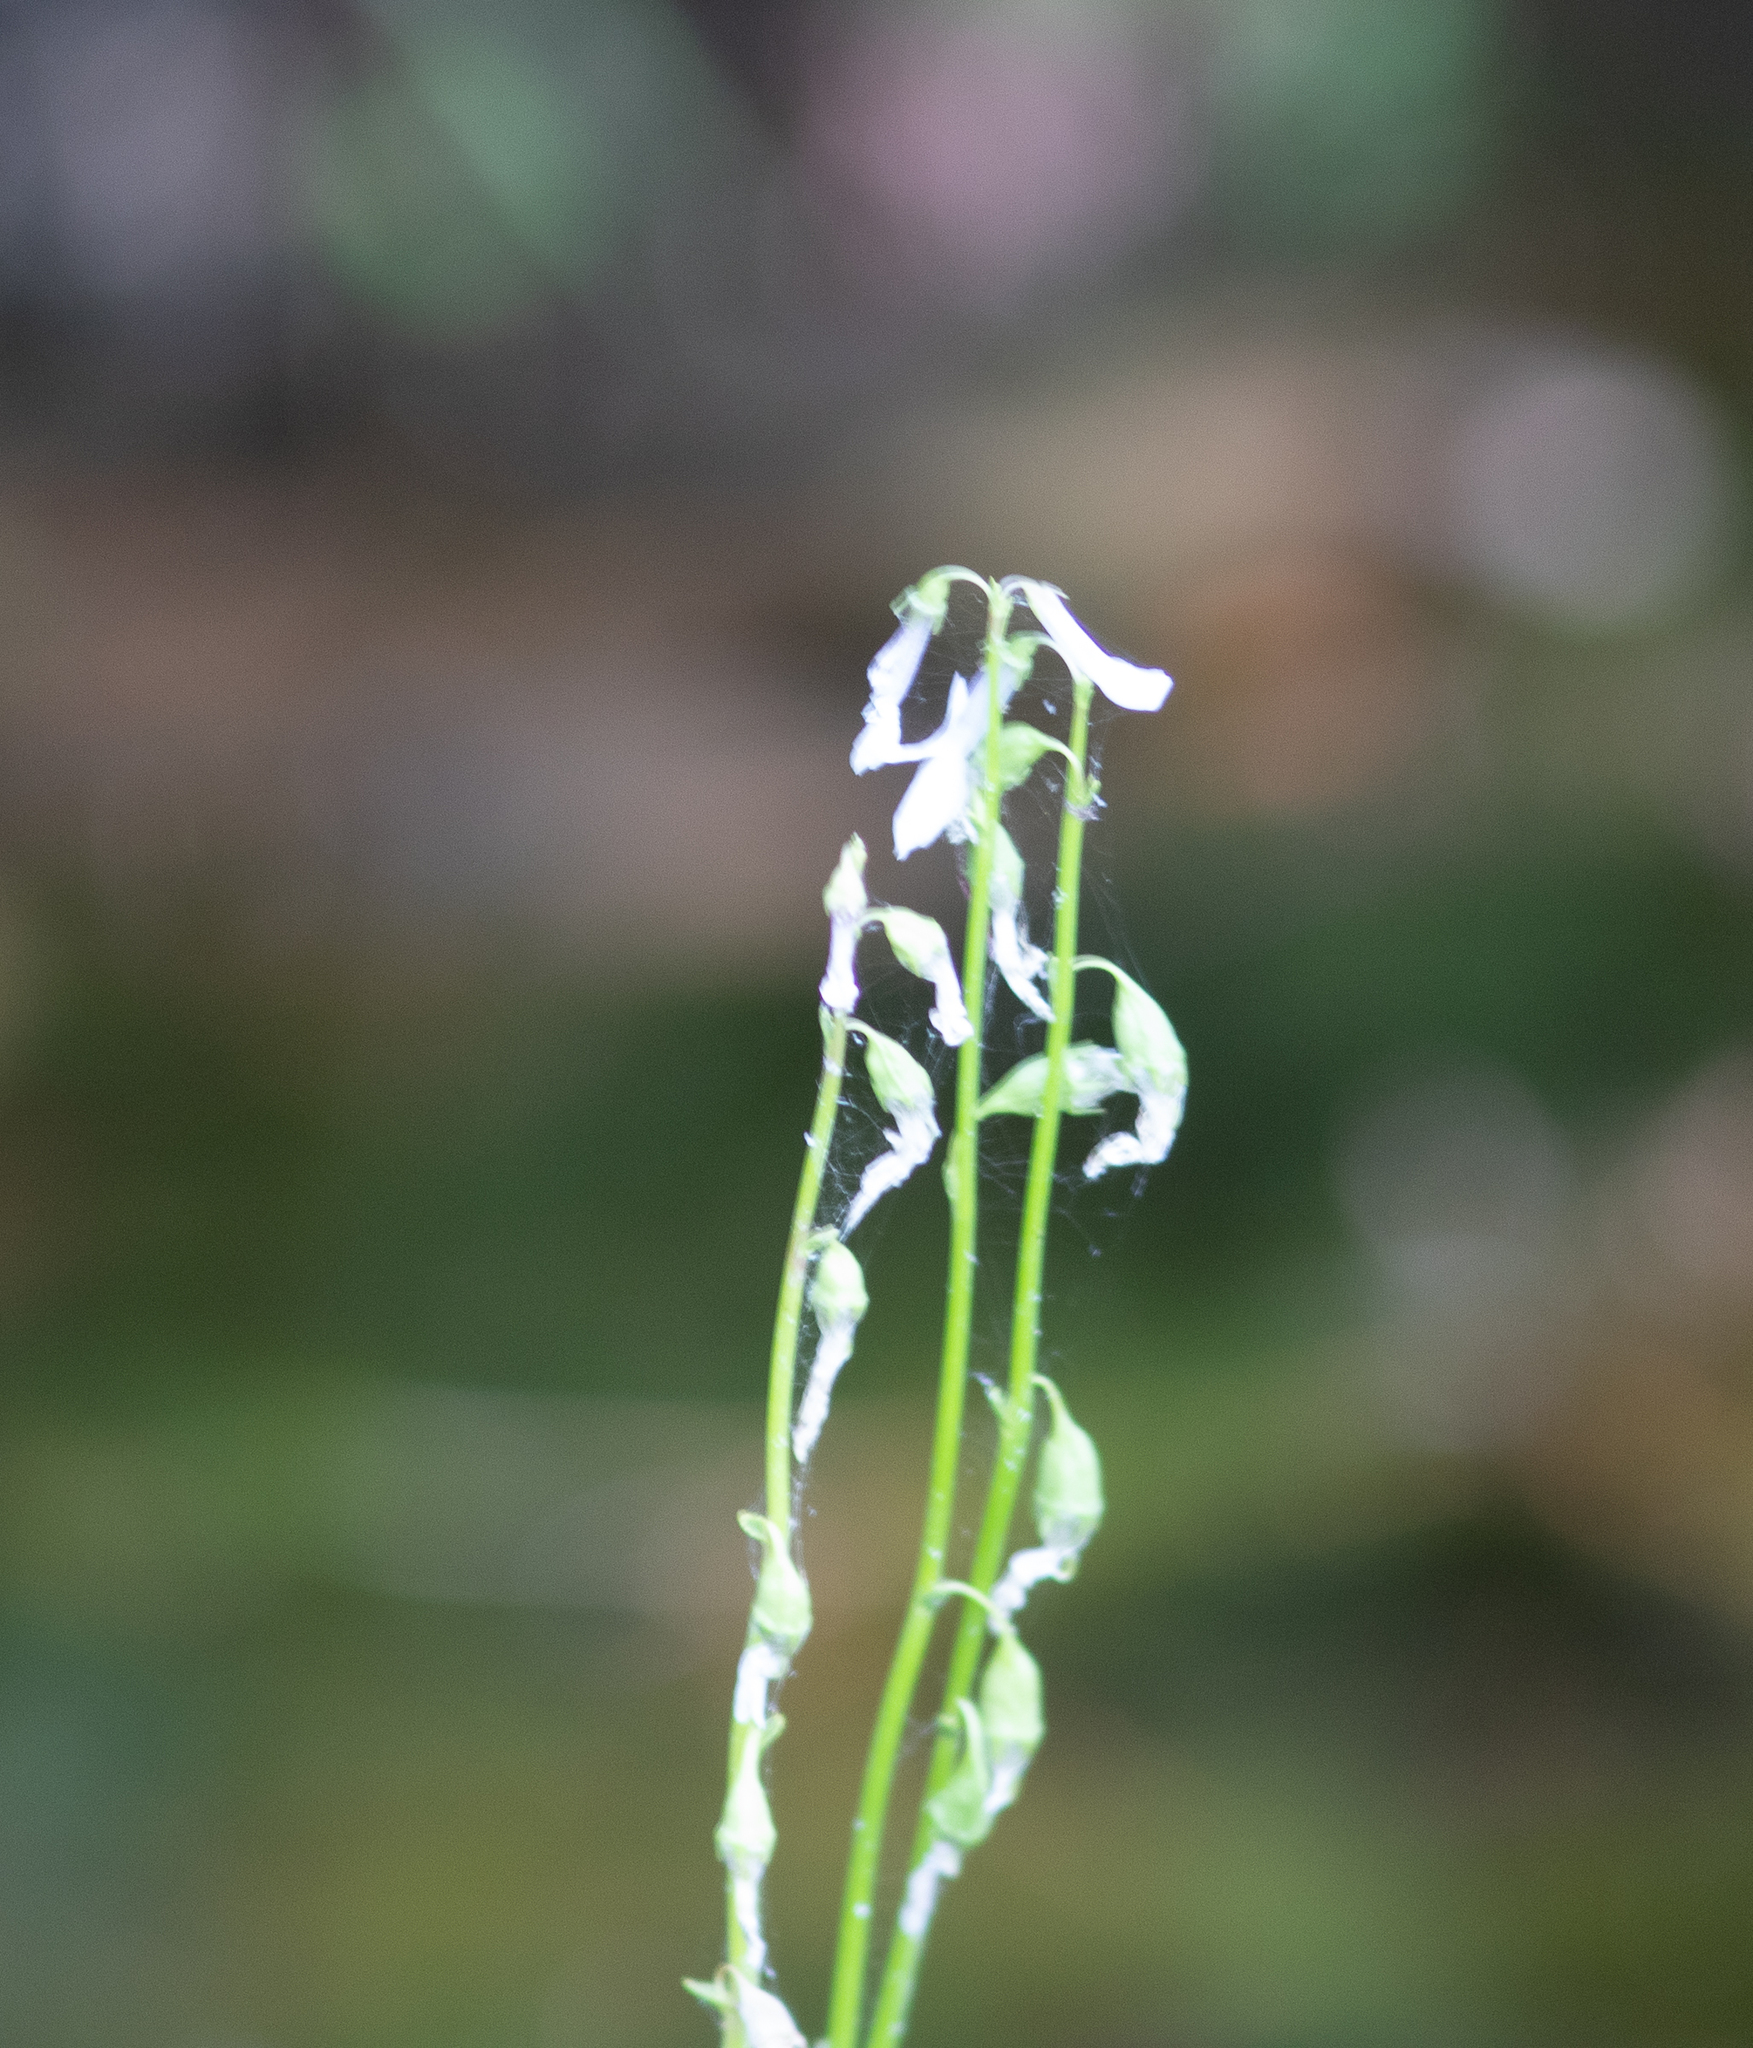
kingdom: Plantae
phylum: Tracheophyta
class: Magnoliopsida
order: Asterales
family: Campanulaceae
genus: Lobelia
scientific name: Lobelia dortmanna
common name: Water lobelia
